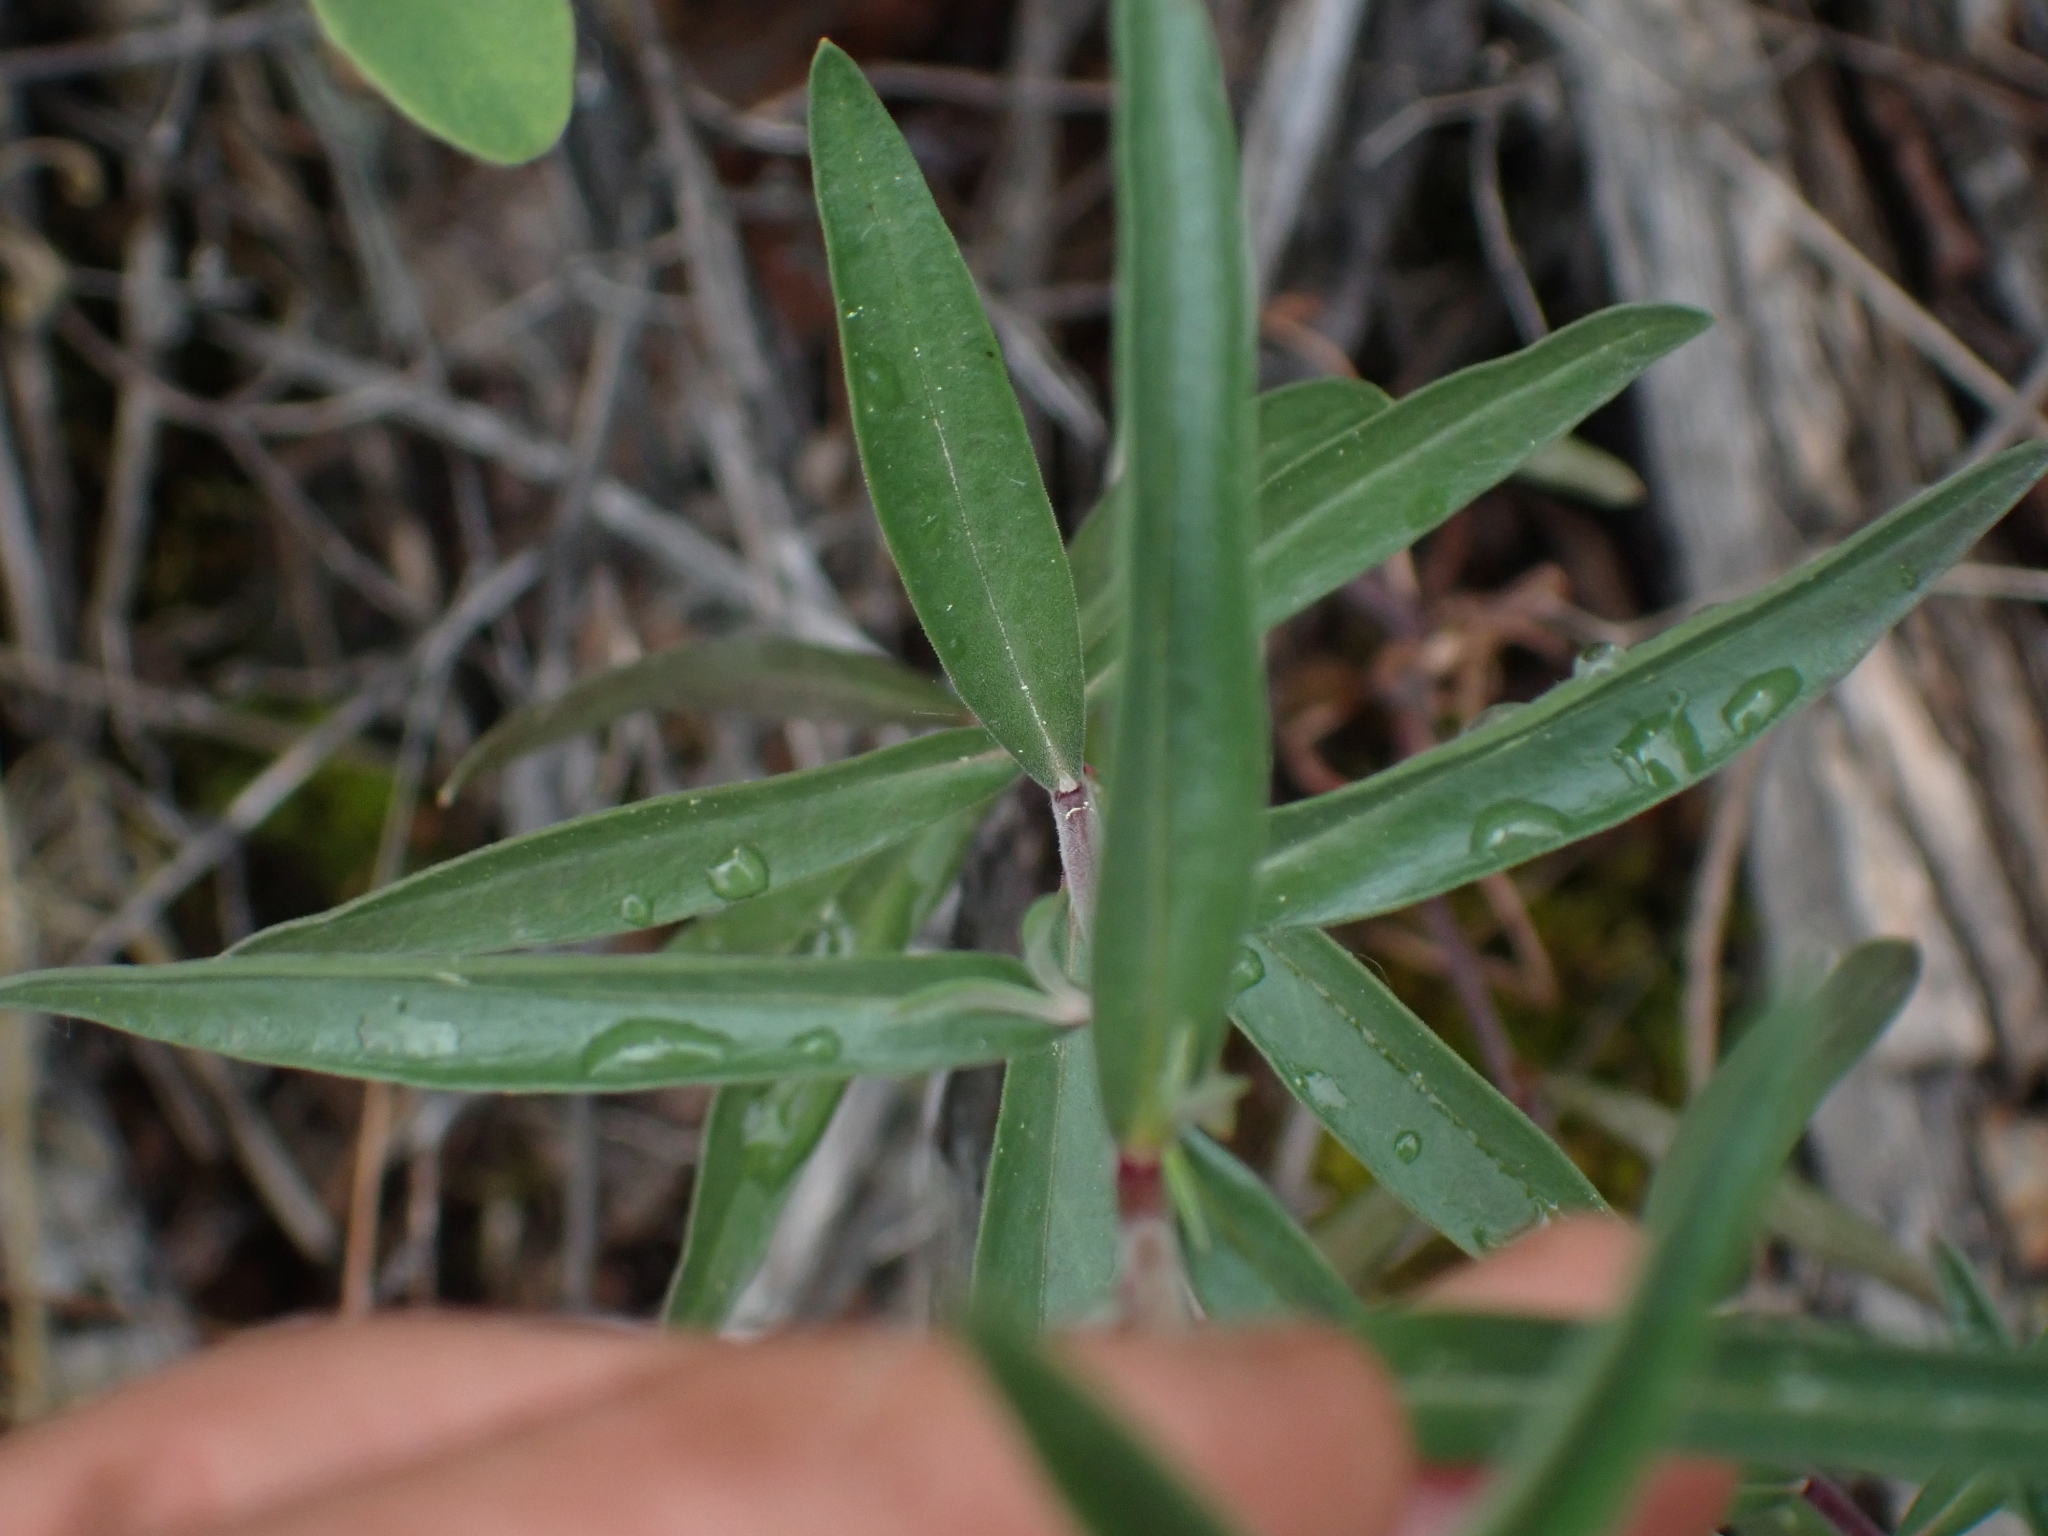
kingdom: Plantae
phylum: Tracheophyta
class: Magnoliopsida
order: Ericales
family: Polemoniaceae
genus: Collomia
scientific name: Collomia grandiflora
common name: California strawflower
